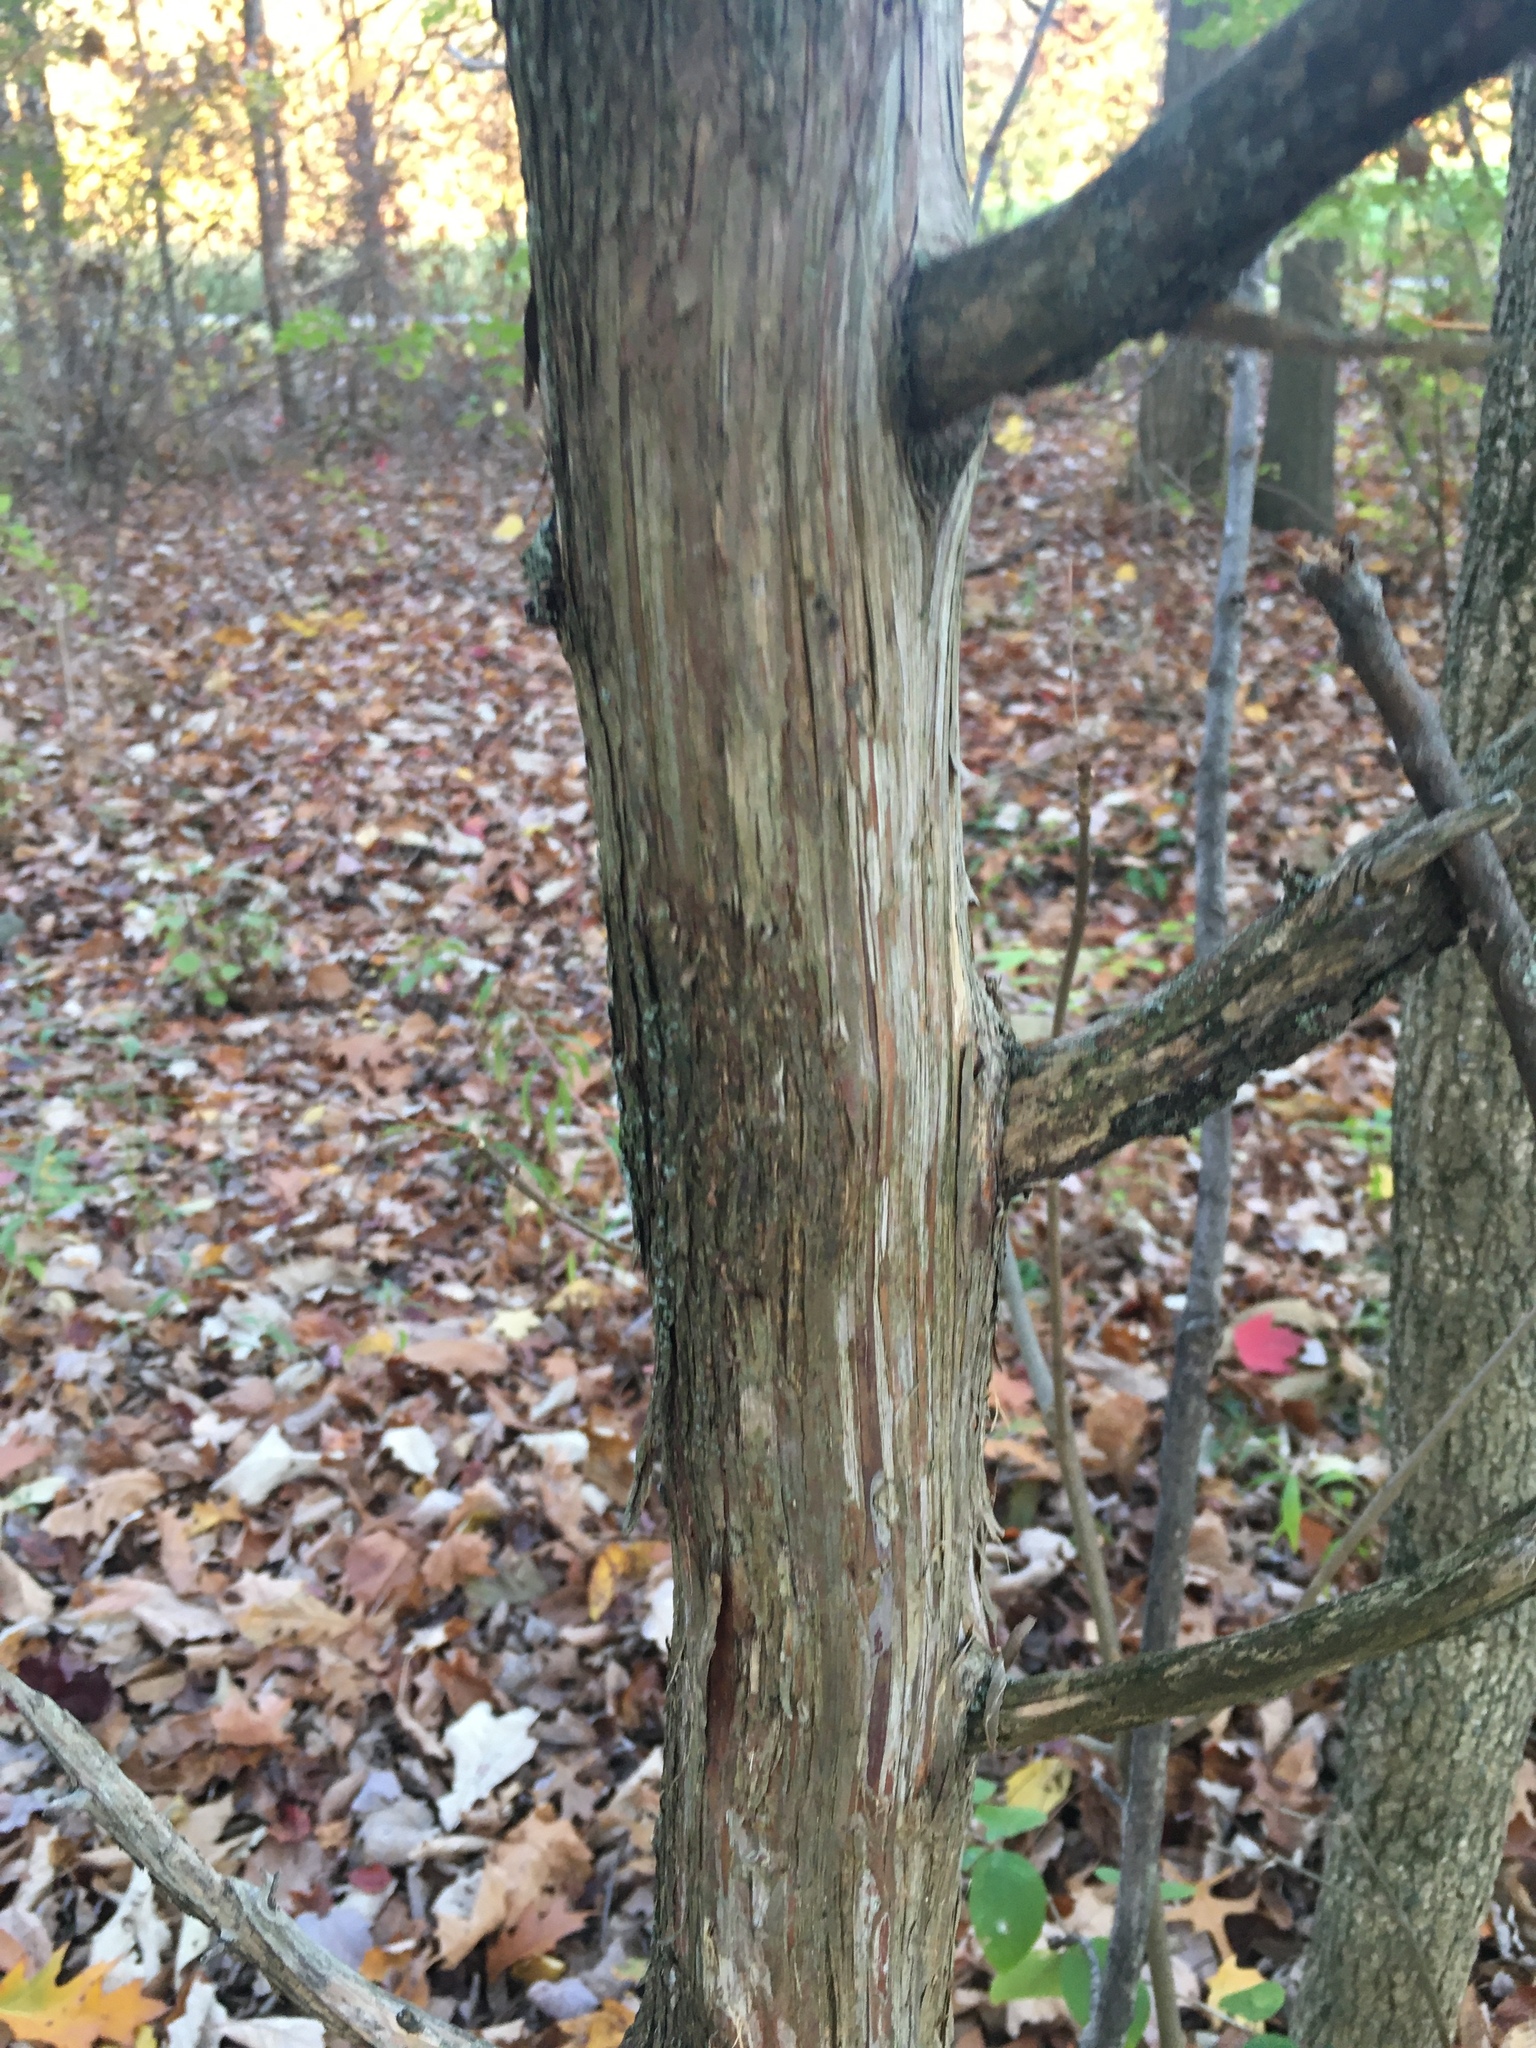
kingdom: Plantae
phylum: Tracheophyta
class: Pinopsida
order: Pinales
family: Cupressaceae
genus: Juniperus
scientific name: Juniperus virginiana
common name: Red juniper
